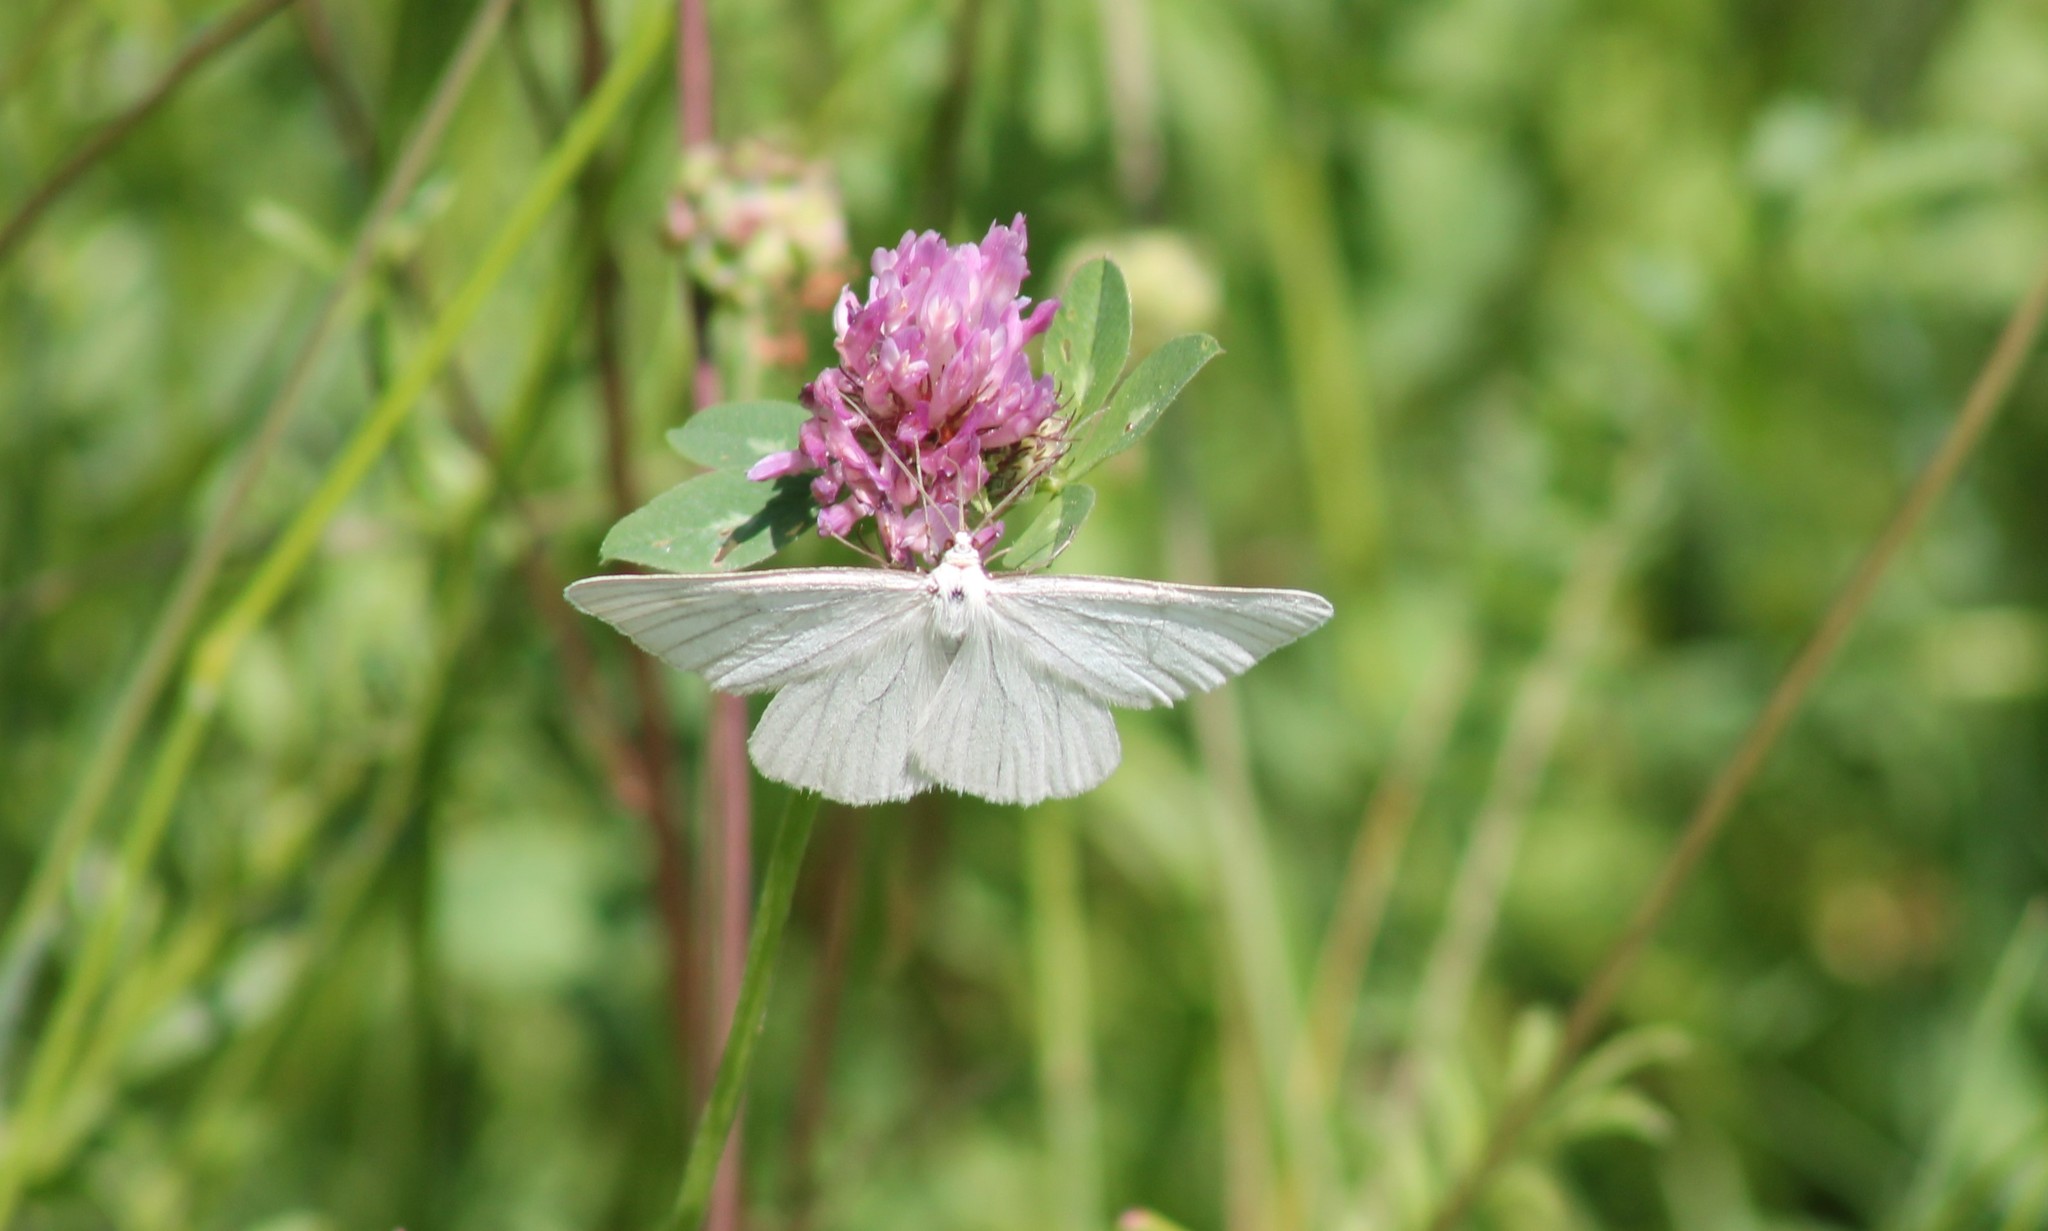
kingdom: Animalia
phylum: Arthropoda
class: Insecta
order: Lepidoptera
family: Geometridae
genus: Siona
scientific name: Siona lineata
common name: Black-veined moth
